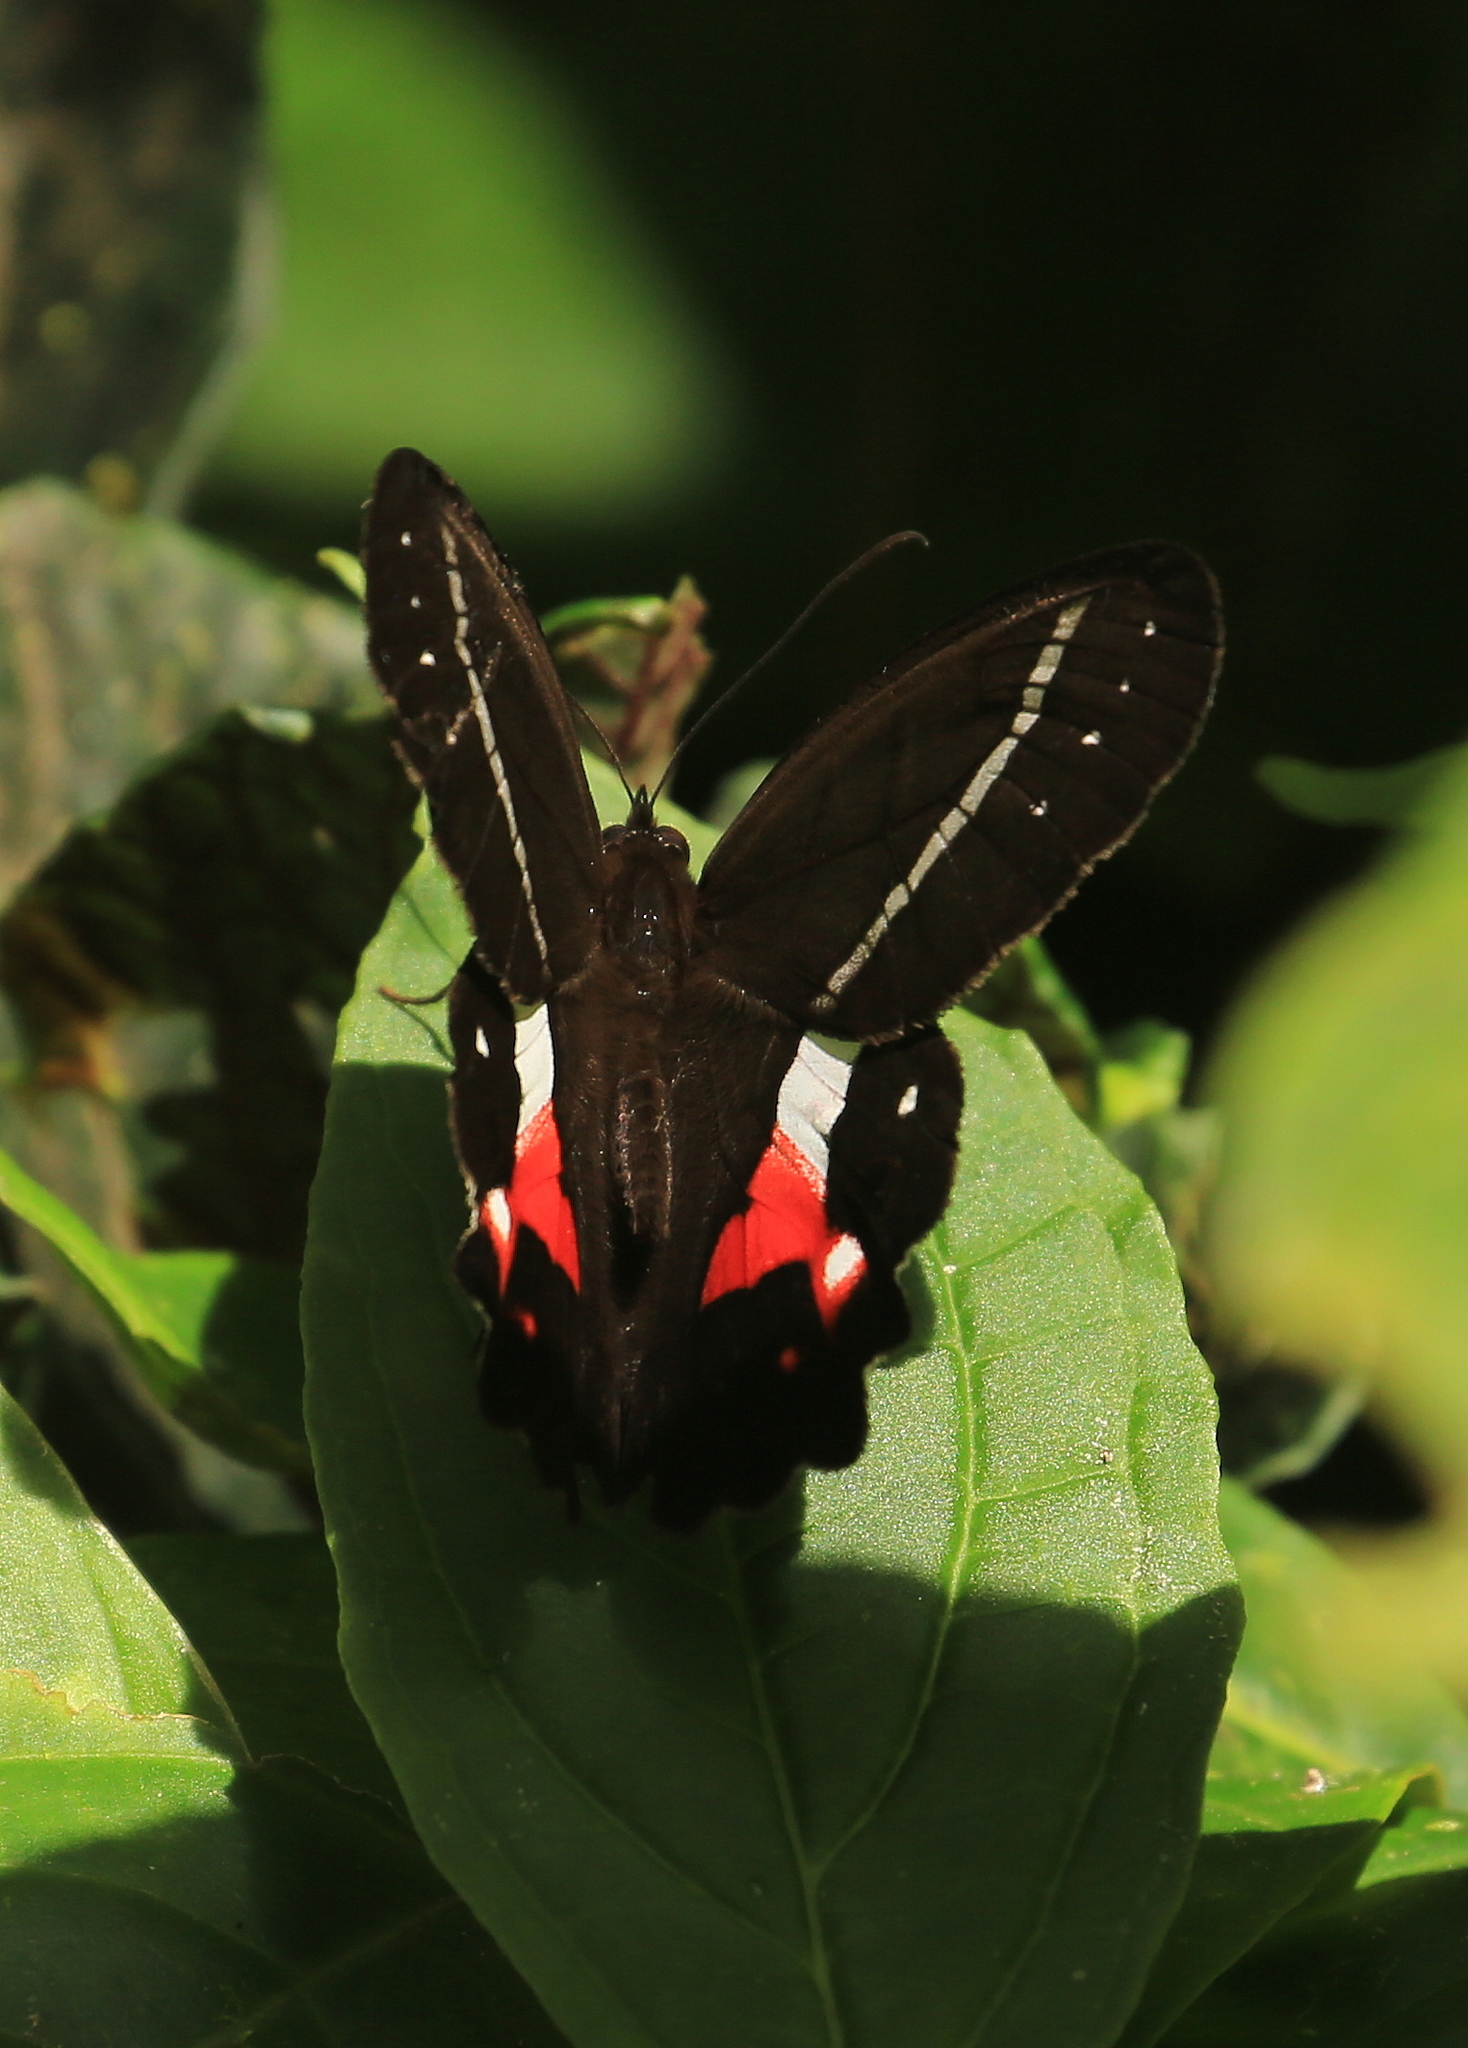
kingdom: Animalia
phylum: Arthropoda
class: Insecta
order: Lepidoptera
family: Nymphalidae
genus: Pierella
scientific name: Pierella helvina
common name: Red-washed satyr
